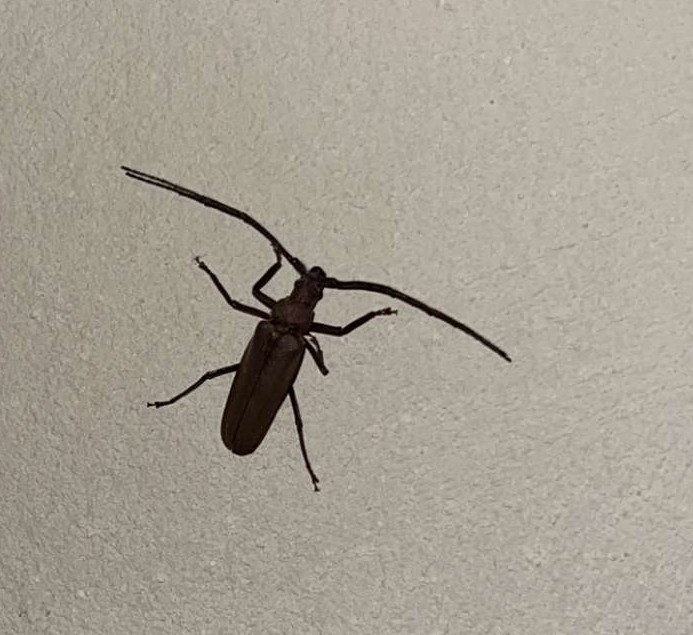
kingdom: Animalia
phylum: Arthropoda
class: Insecta
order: Coleoptera
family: Cerambycidae
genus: Aegosoma
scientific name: Aegosoma scabricorne
